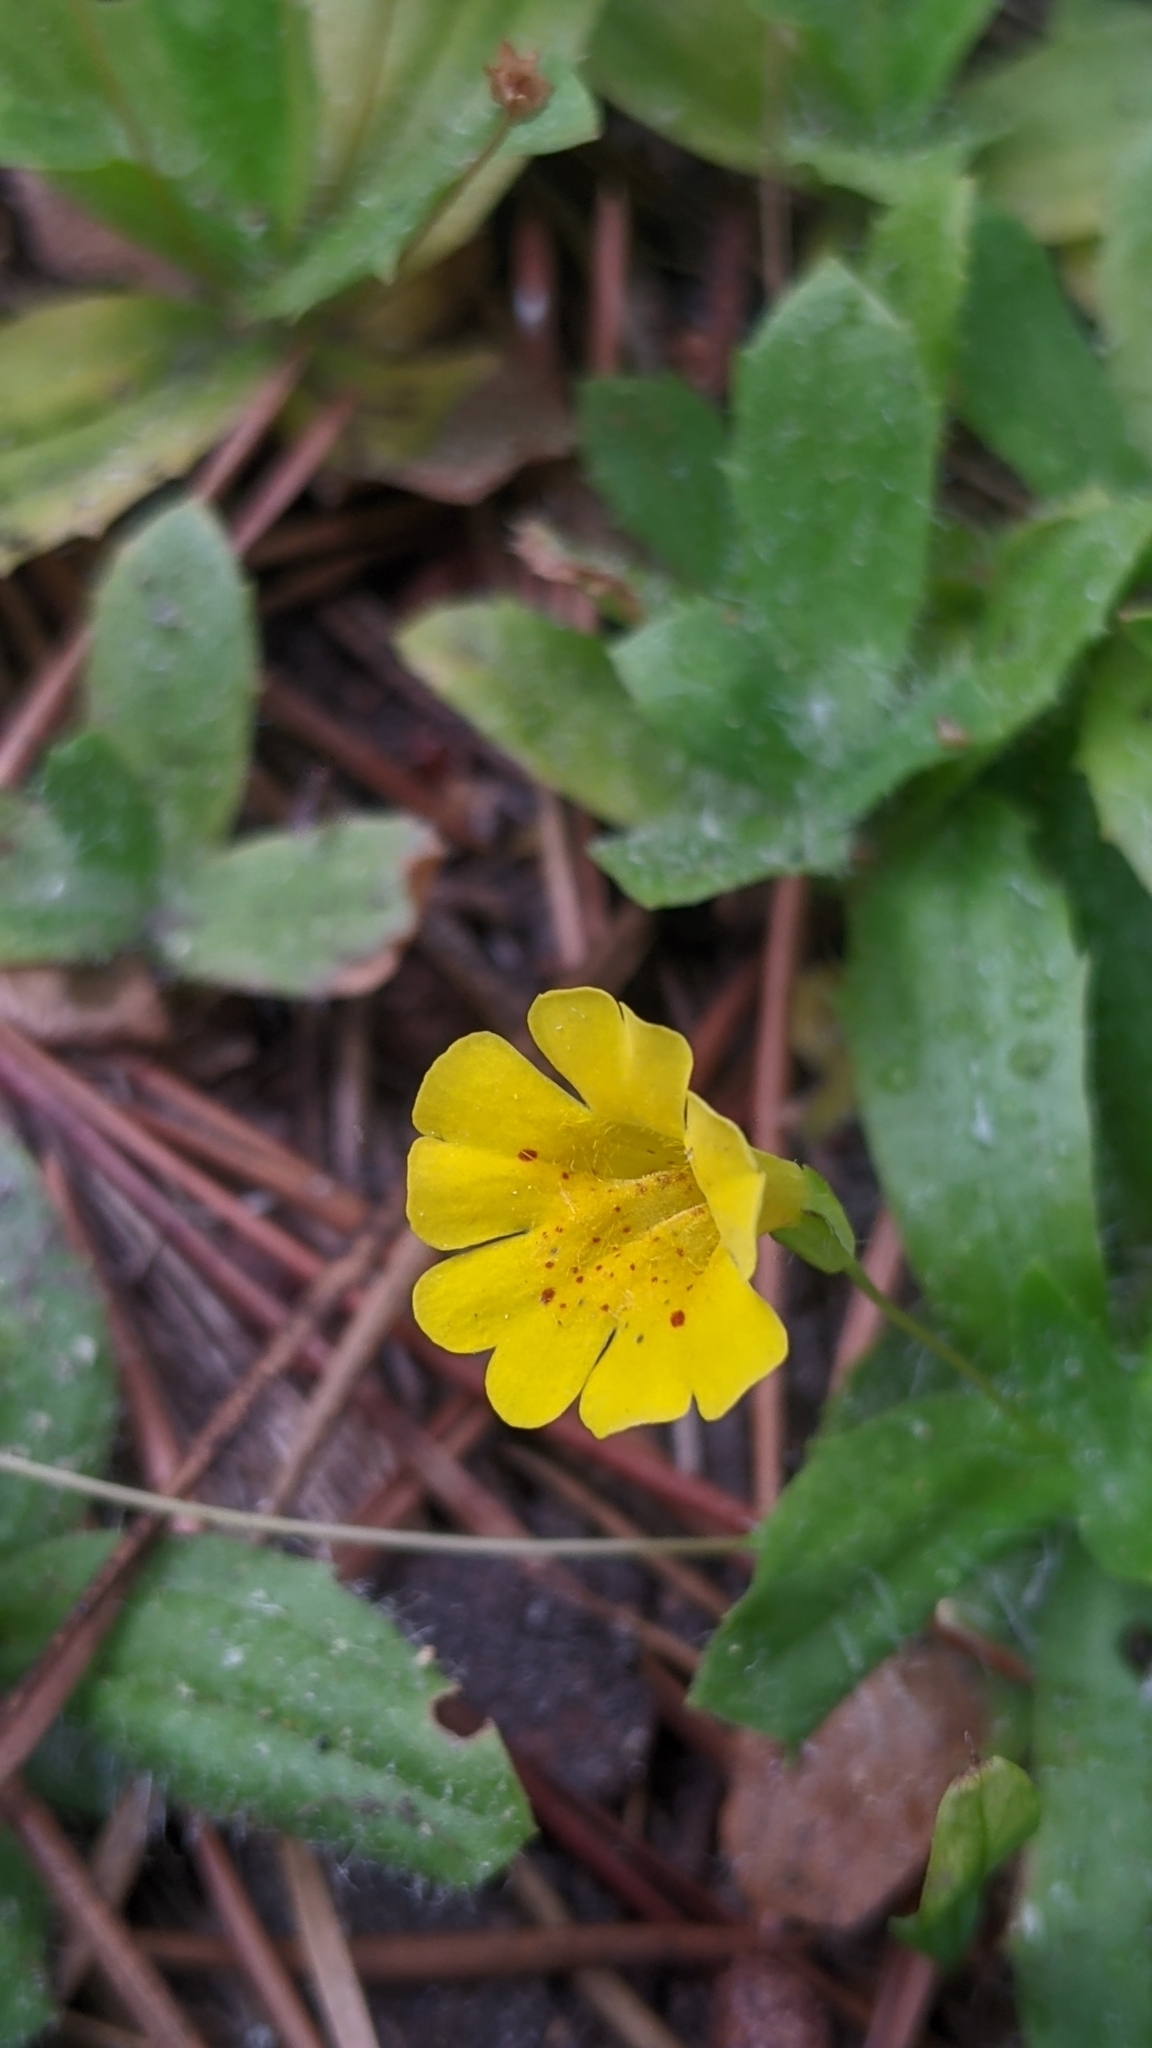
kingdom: Plantae
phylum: Tracheophyta
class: Magnoliopsida
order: Lamiales
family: Phrymaceae
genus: Erythranthe
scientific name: Erythranthe primuloides
